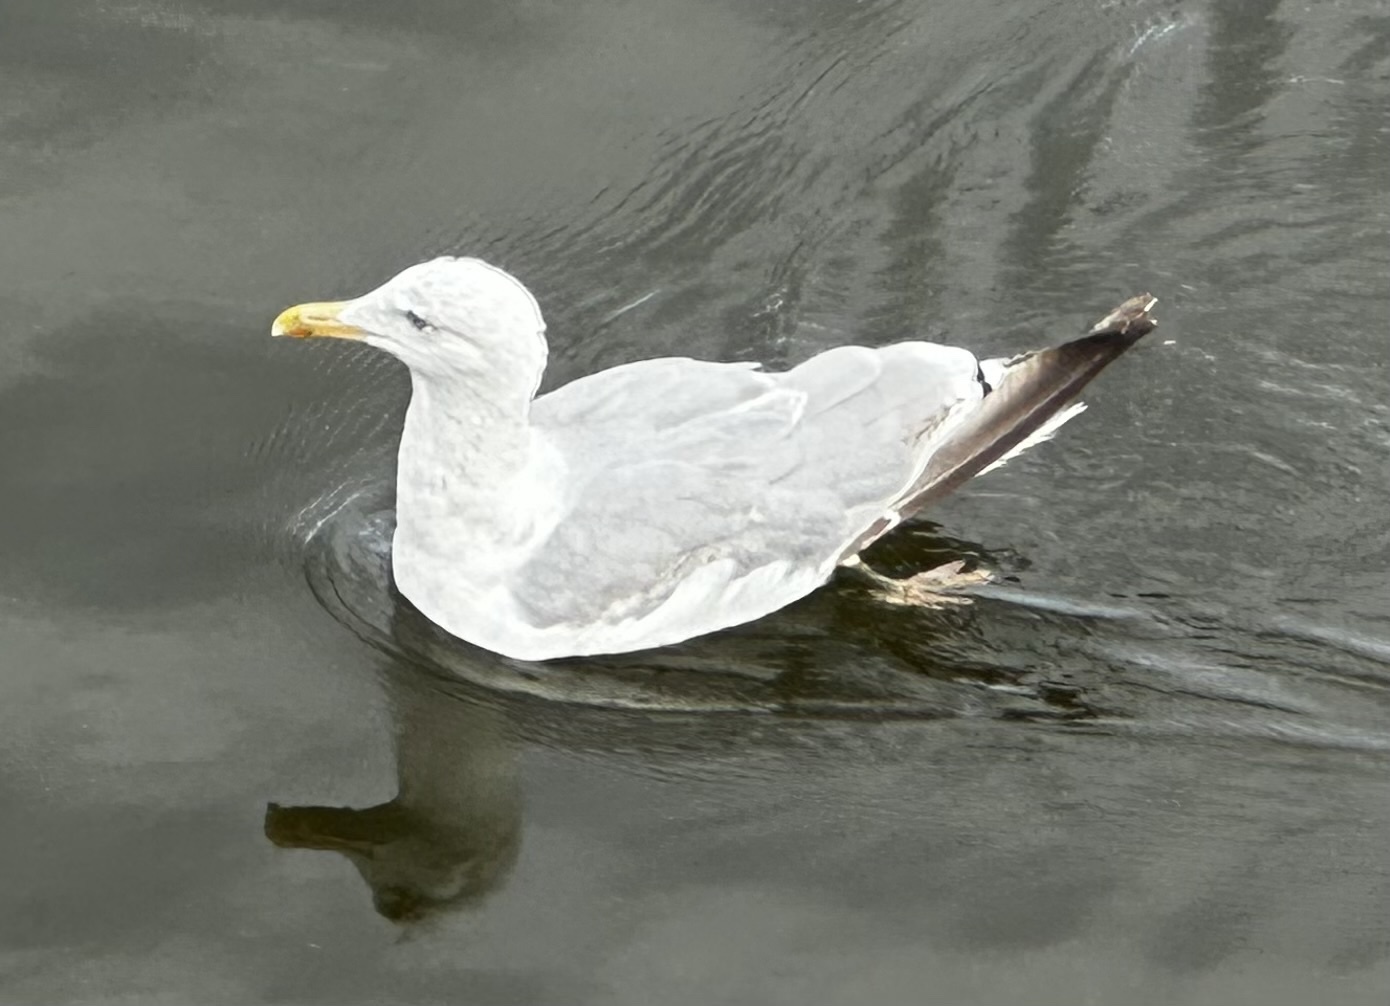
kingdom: Animalia
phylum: Chordata
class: Aves
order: Charadriiformes
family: Laridae
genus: Larus
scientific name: Larus argentatus
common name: Herring gull
